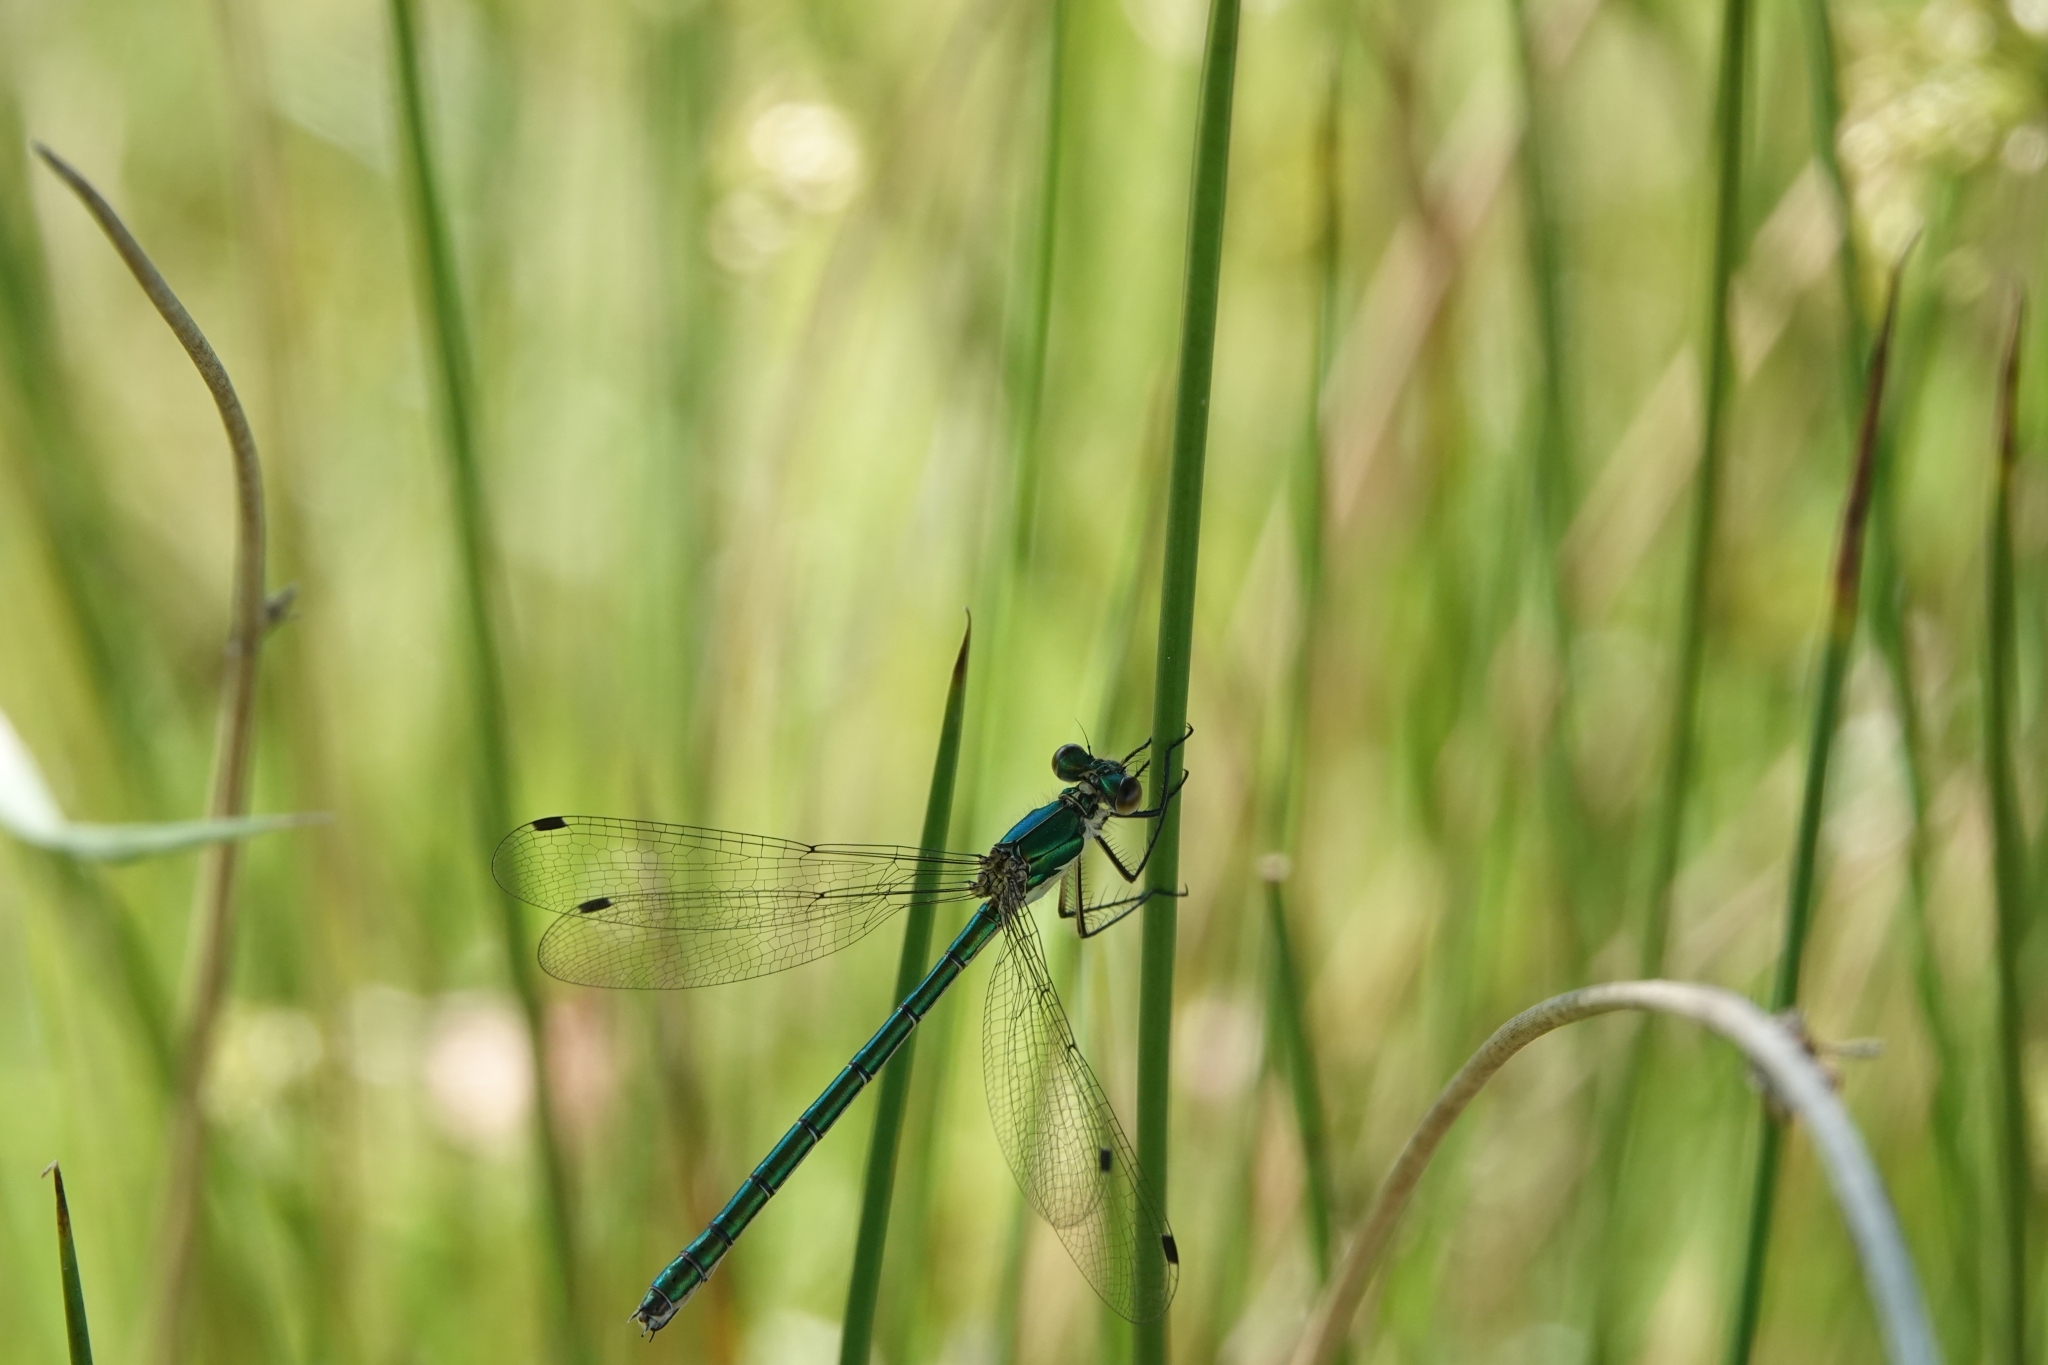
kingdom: Animalia
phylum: Arthropoda
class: Insecta
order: Odonata
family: Lestidae
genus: Lestes
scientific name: Lestes dryas
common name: Scarce emerald damselfly
